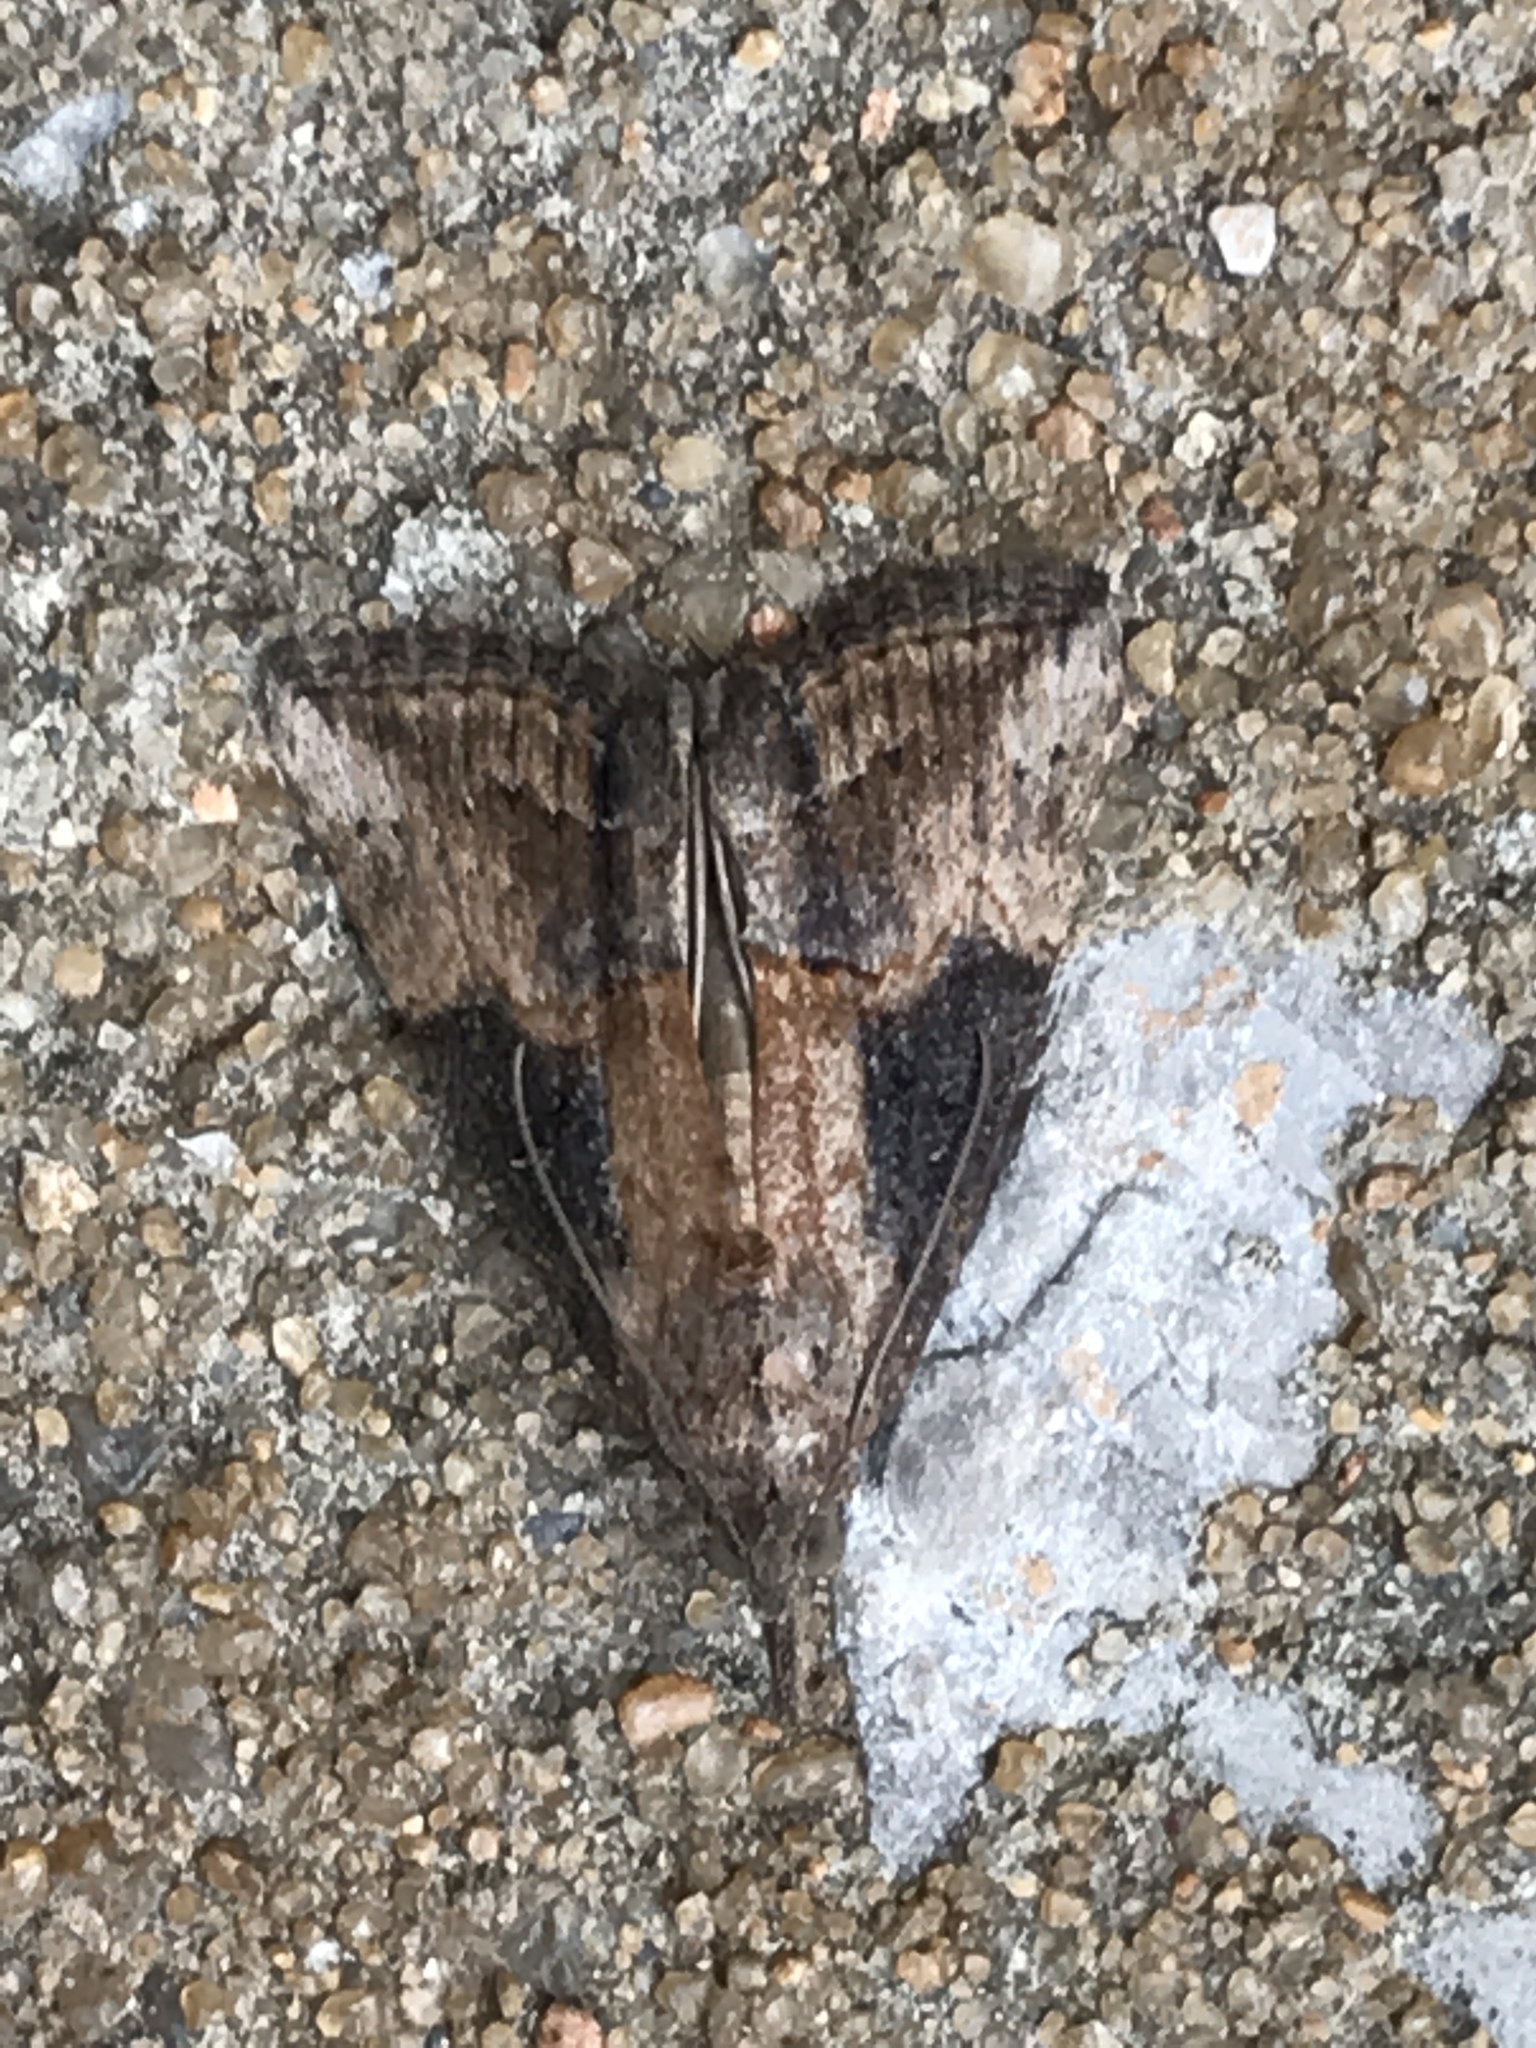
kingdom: Animalia
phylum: Arthropoda
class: Insecta
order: Lepidoptera
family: Erebidae
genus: Hypena
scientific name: Hypena scabra
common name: Green cloverworm
